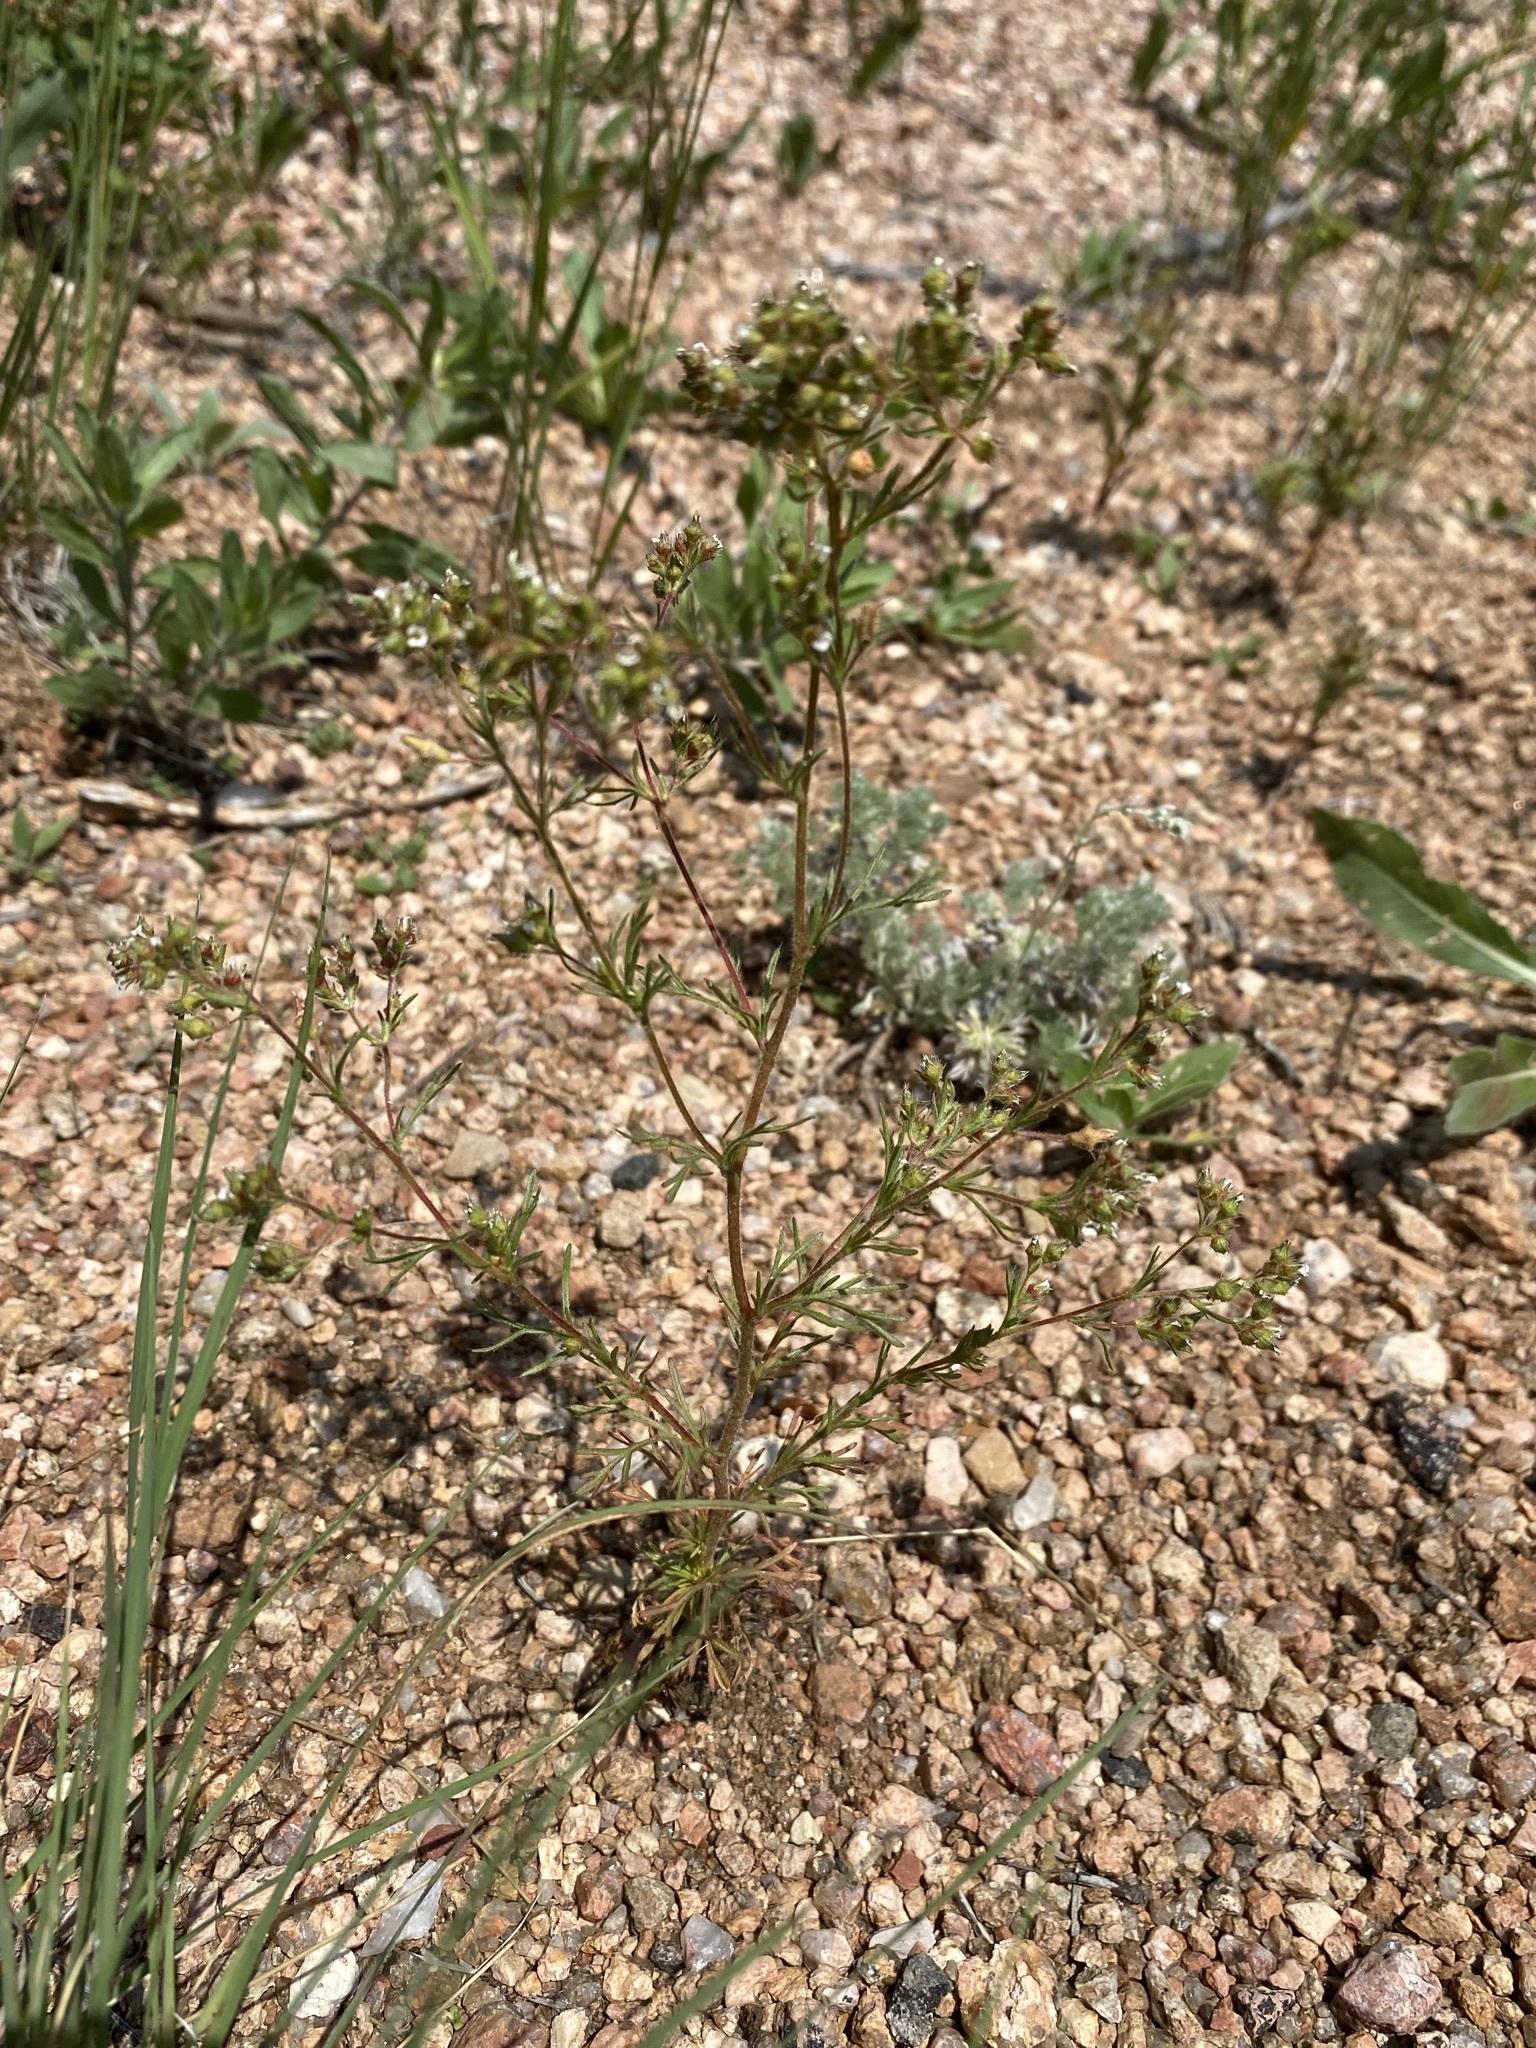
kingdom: Plantae
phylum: Tracheophyta
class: Magnoliopsida
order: Rosales
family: Rosaceae
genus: Chamaerhodos
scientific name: Chamaerhodos erecta
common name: American chamaerhodos
